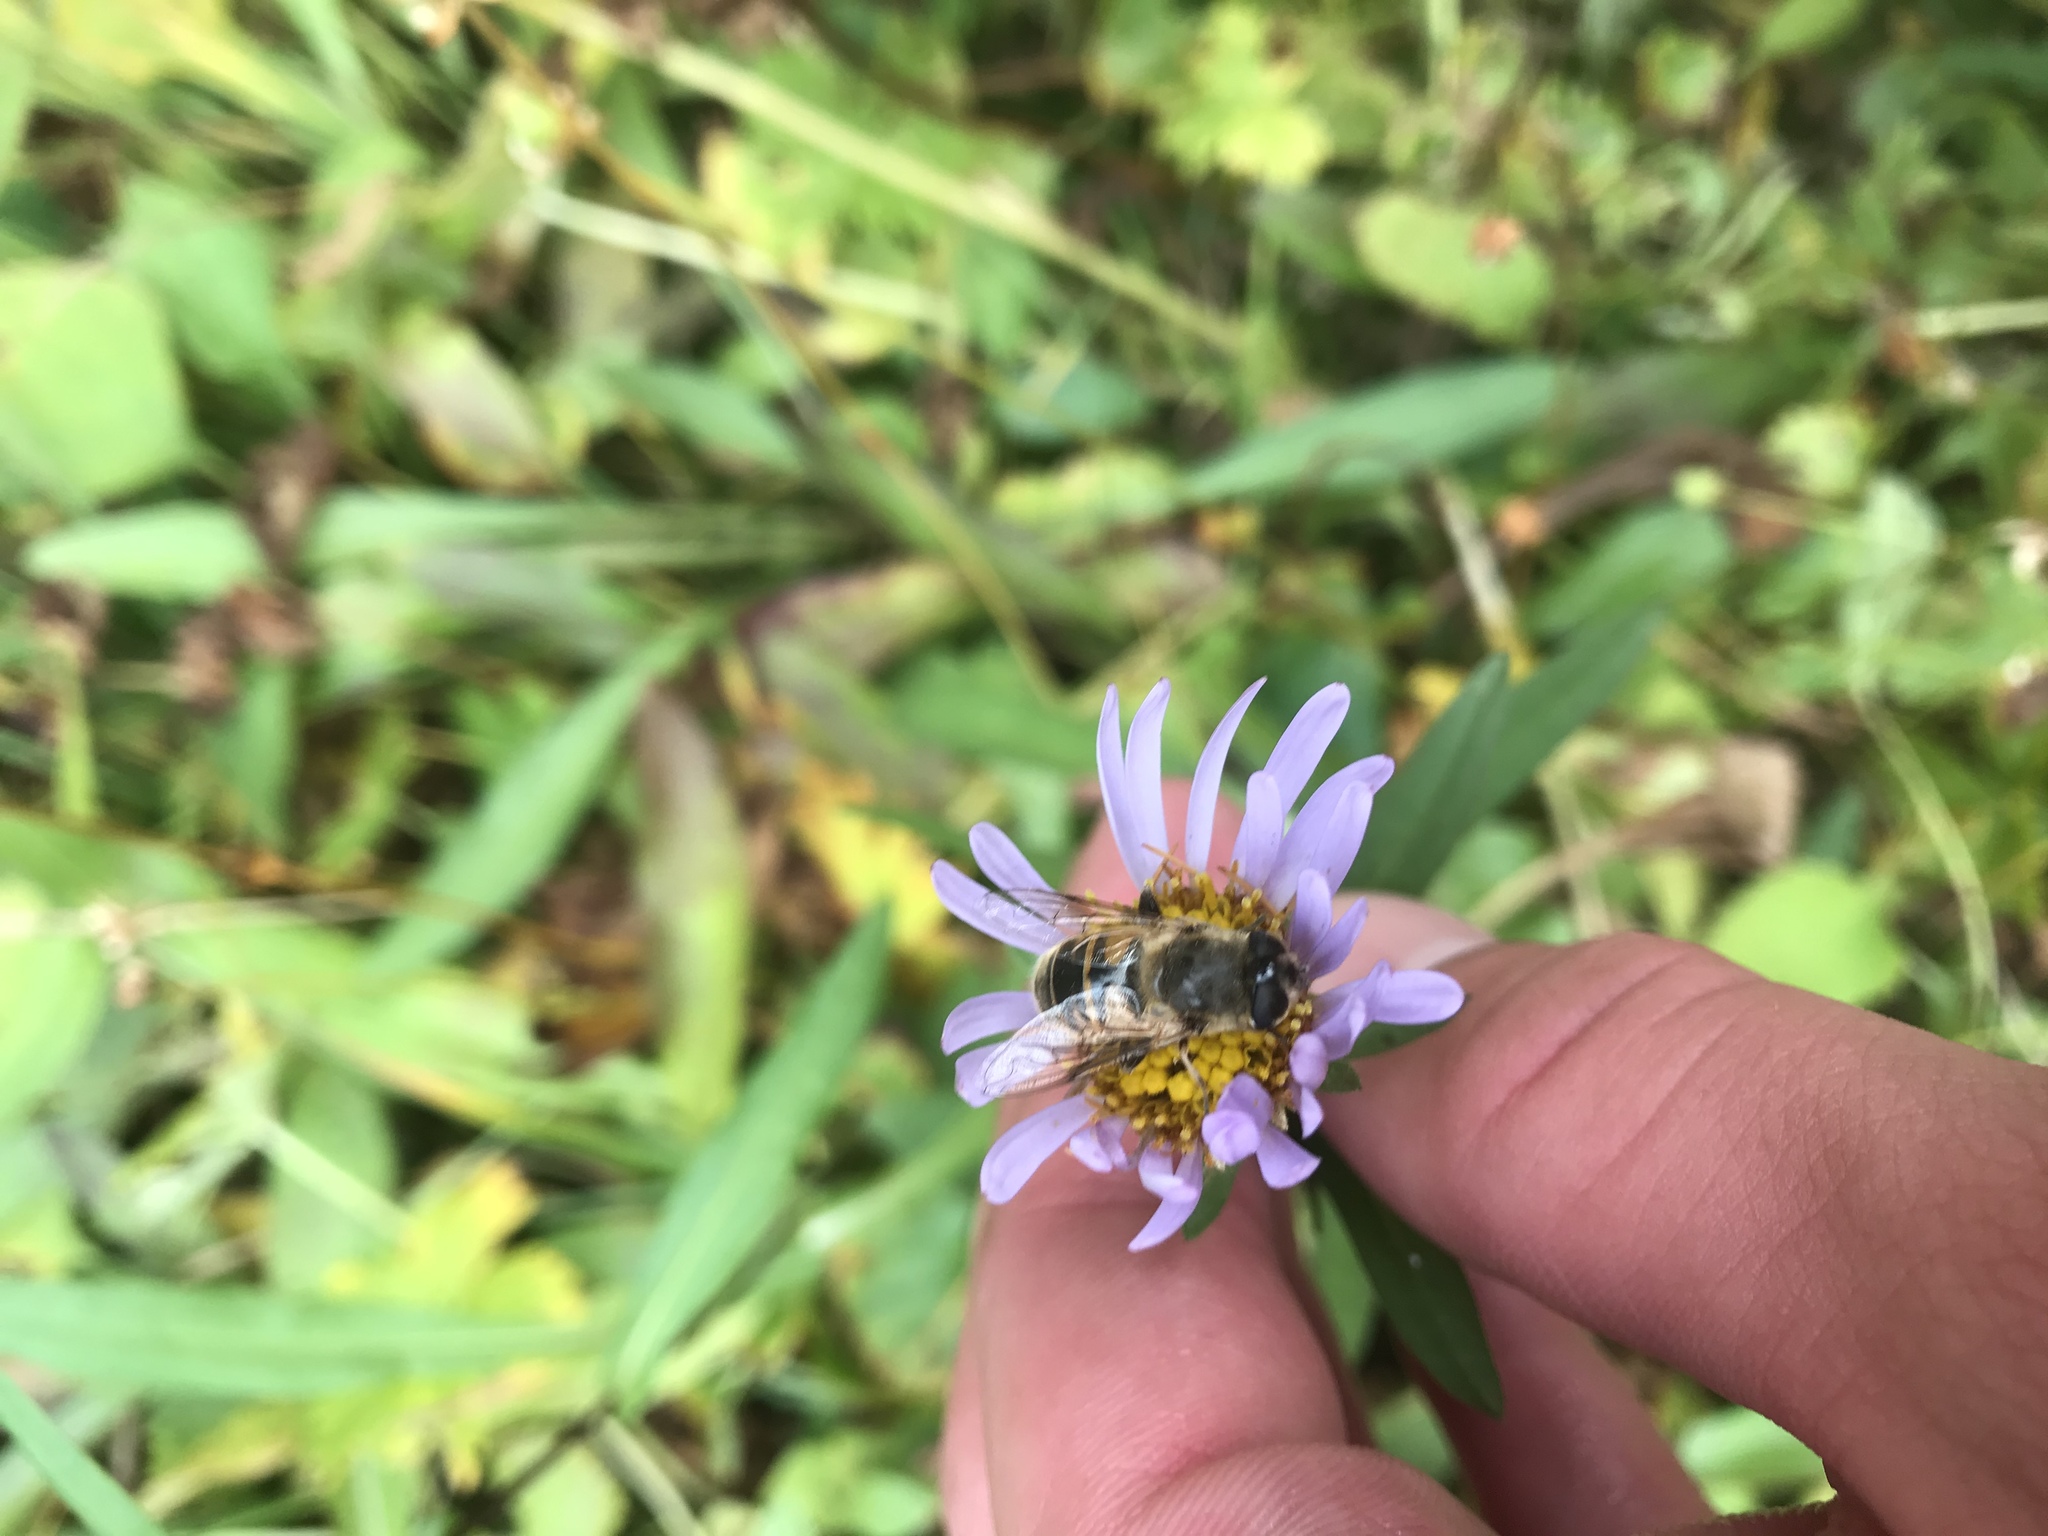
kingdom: Animalia
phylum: Arthropoda
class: Insecta
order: Diptera
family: Syrphidae
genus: Eristalis
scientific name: Eristalis tenax
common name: Drone fly
